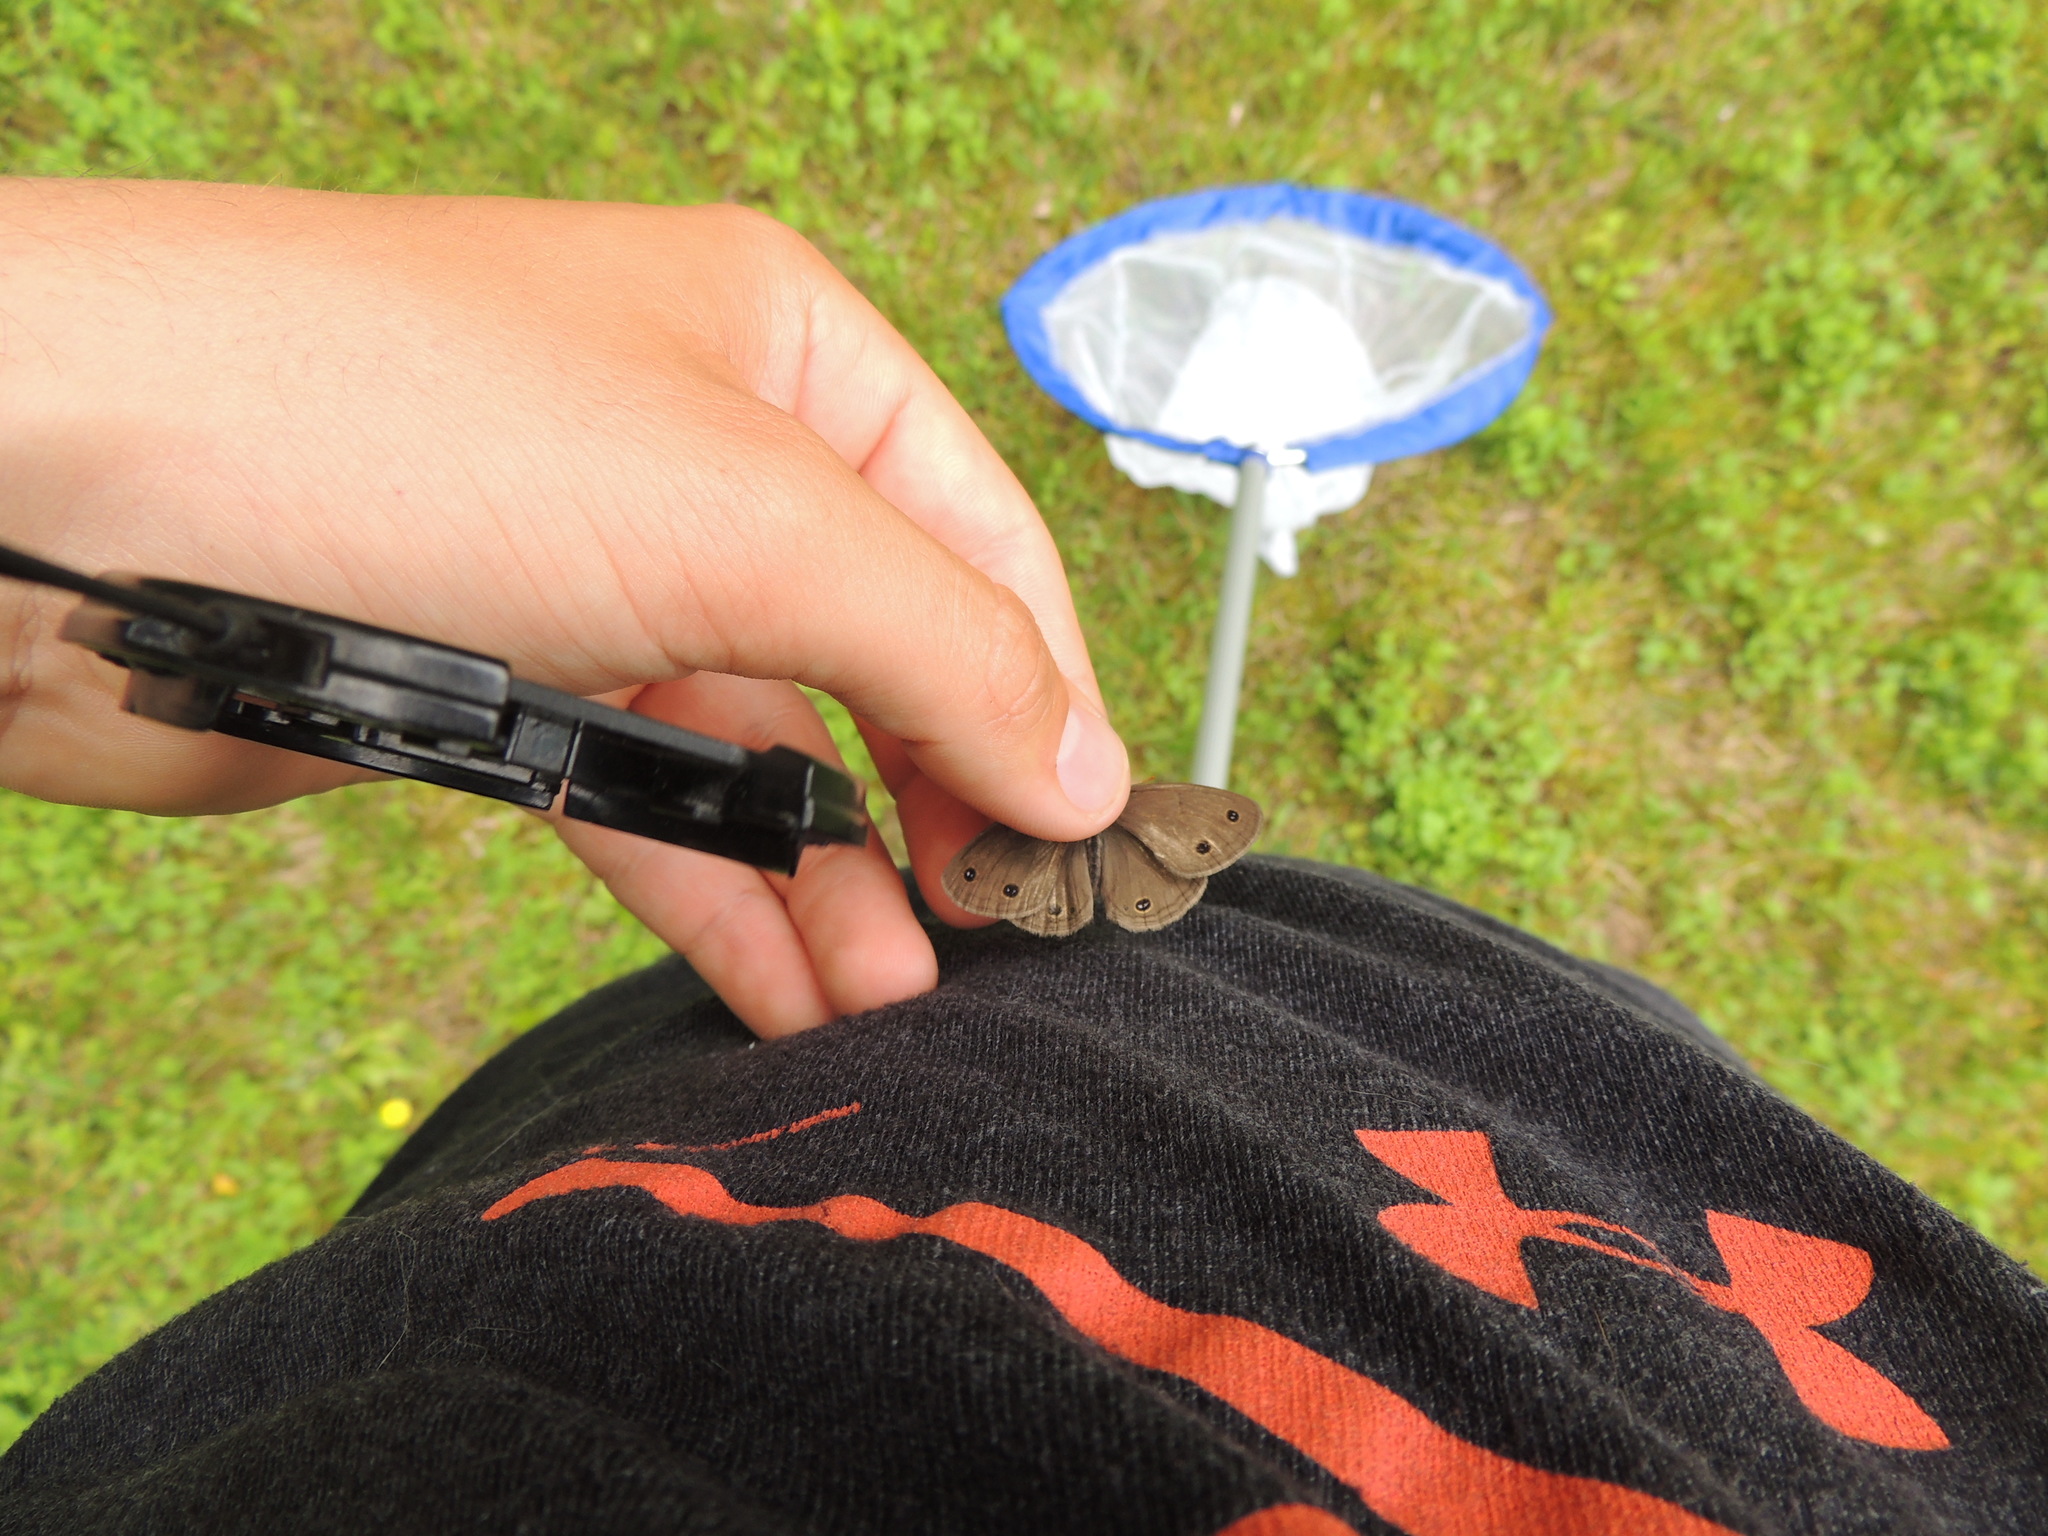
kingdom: Animalia
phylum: Arthropoda
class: Insecta
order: Lepidoptera
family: Nymphalidae
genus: Euptychia
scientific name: Euptychia cymela
